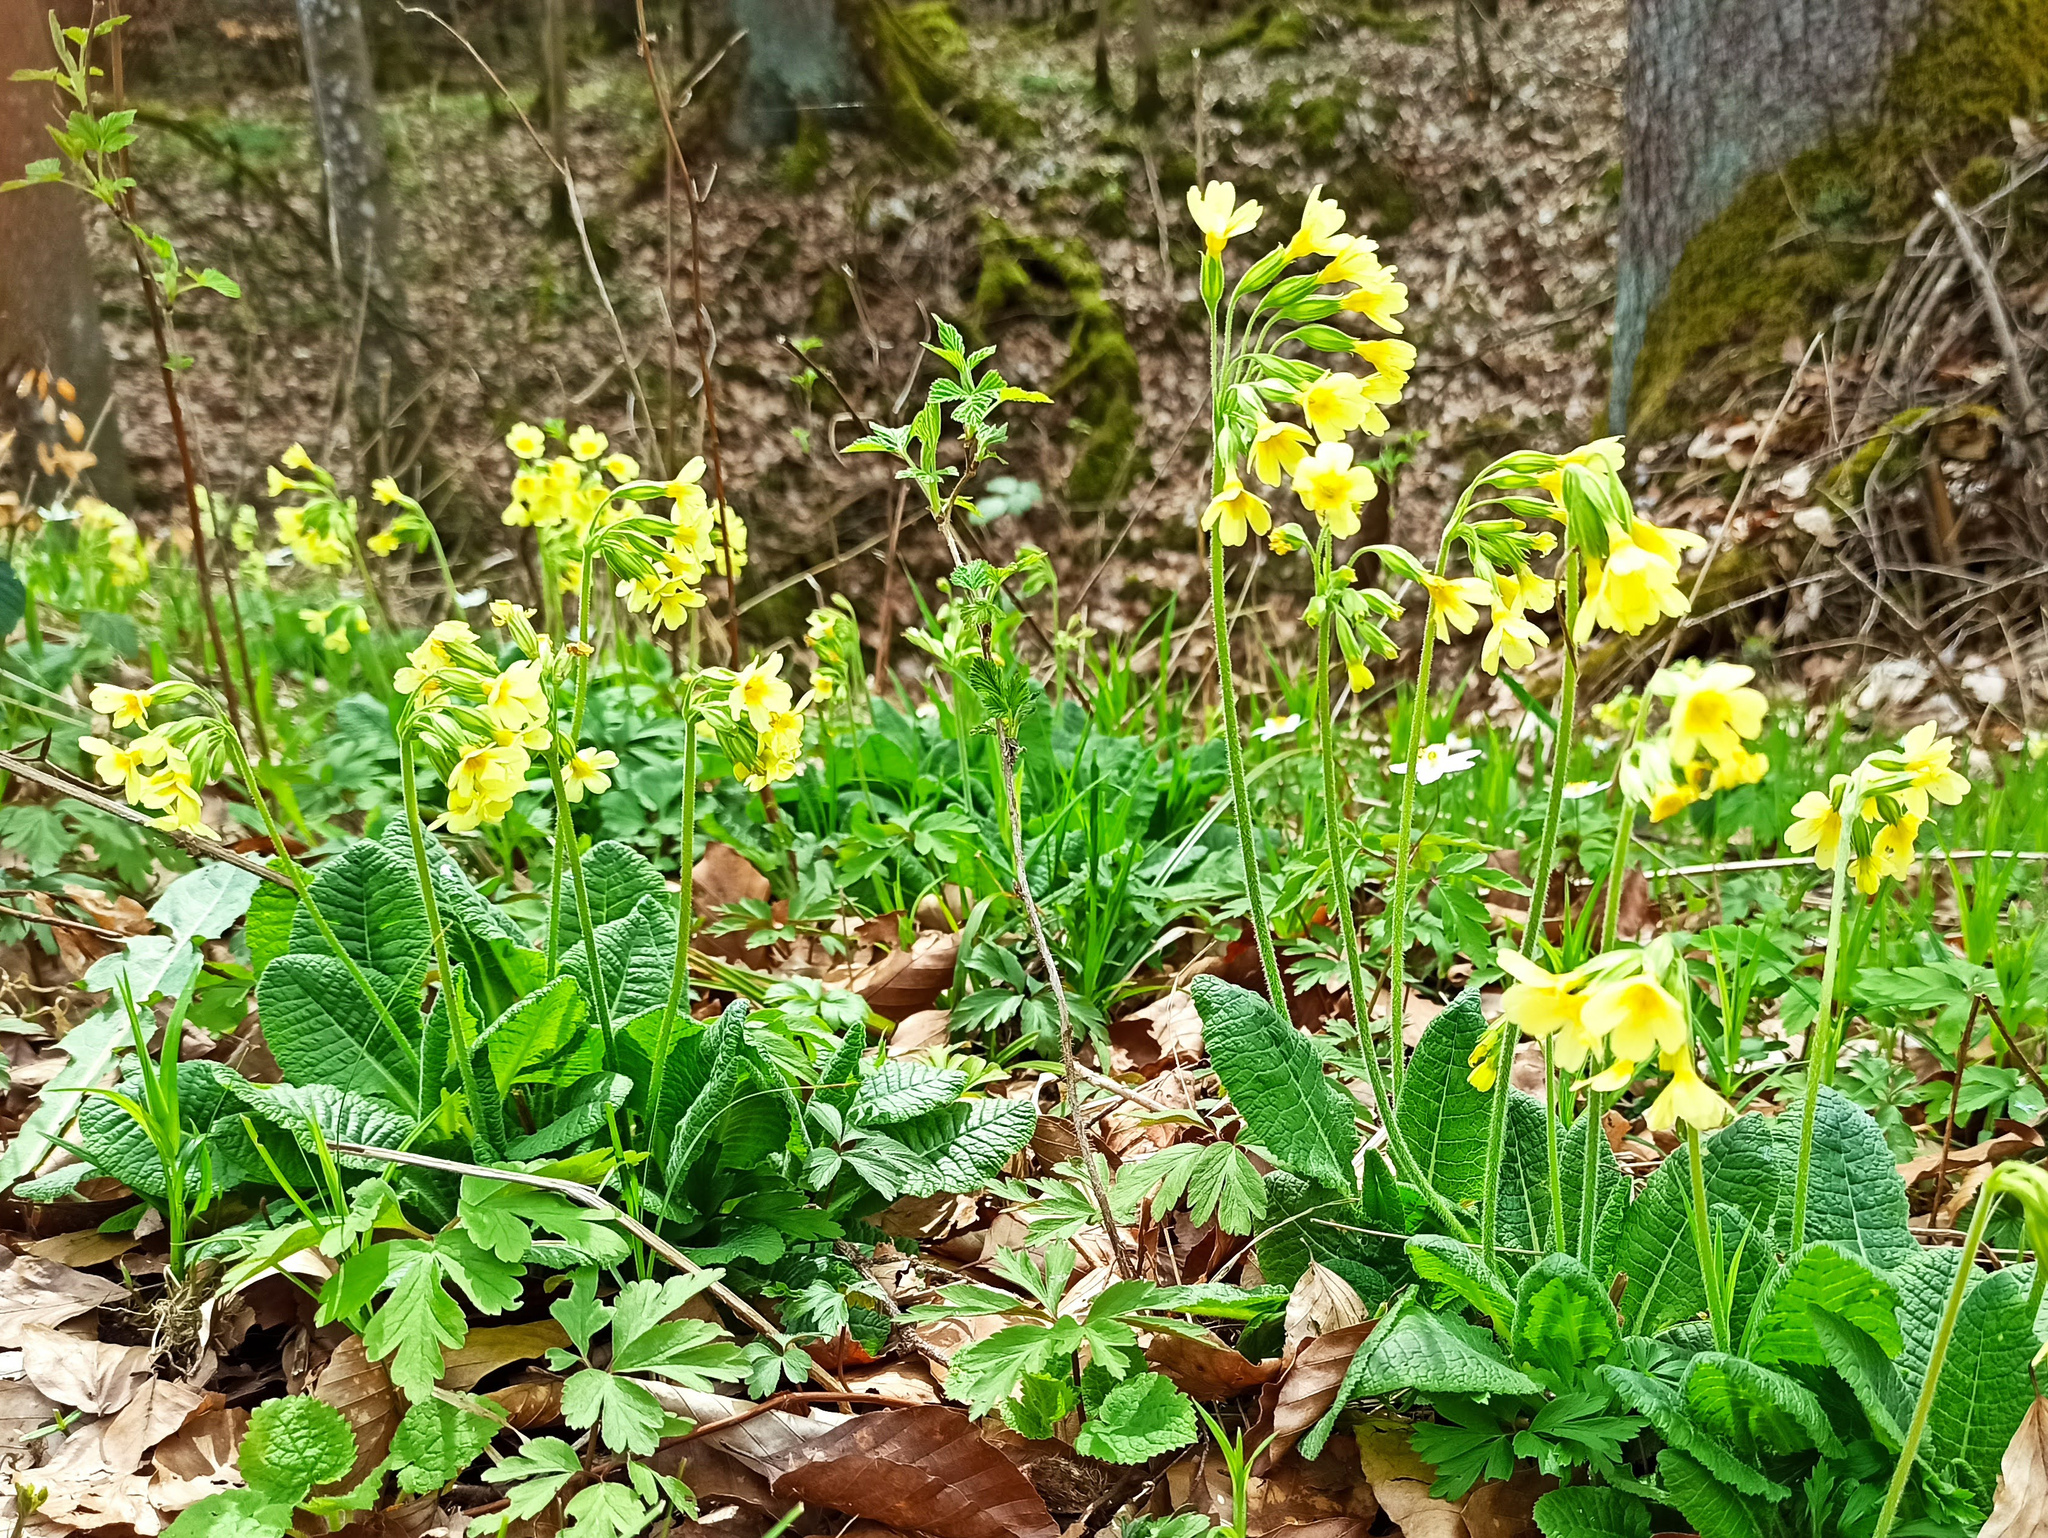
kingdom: Plantae
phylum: Tracheophyta
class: Magnoliopsida
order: Ericales
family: Primulaceae
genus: Primula
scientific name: Primula elatior
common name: Oxlip
